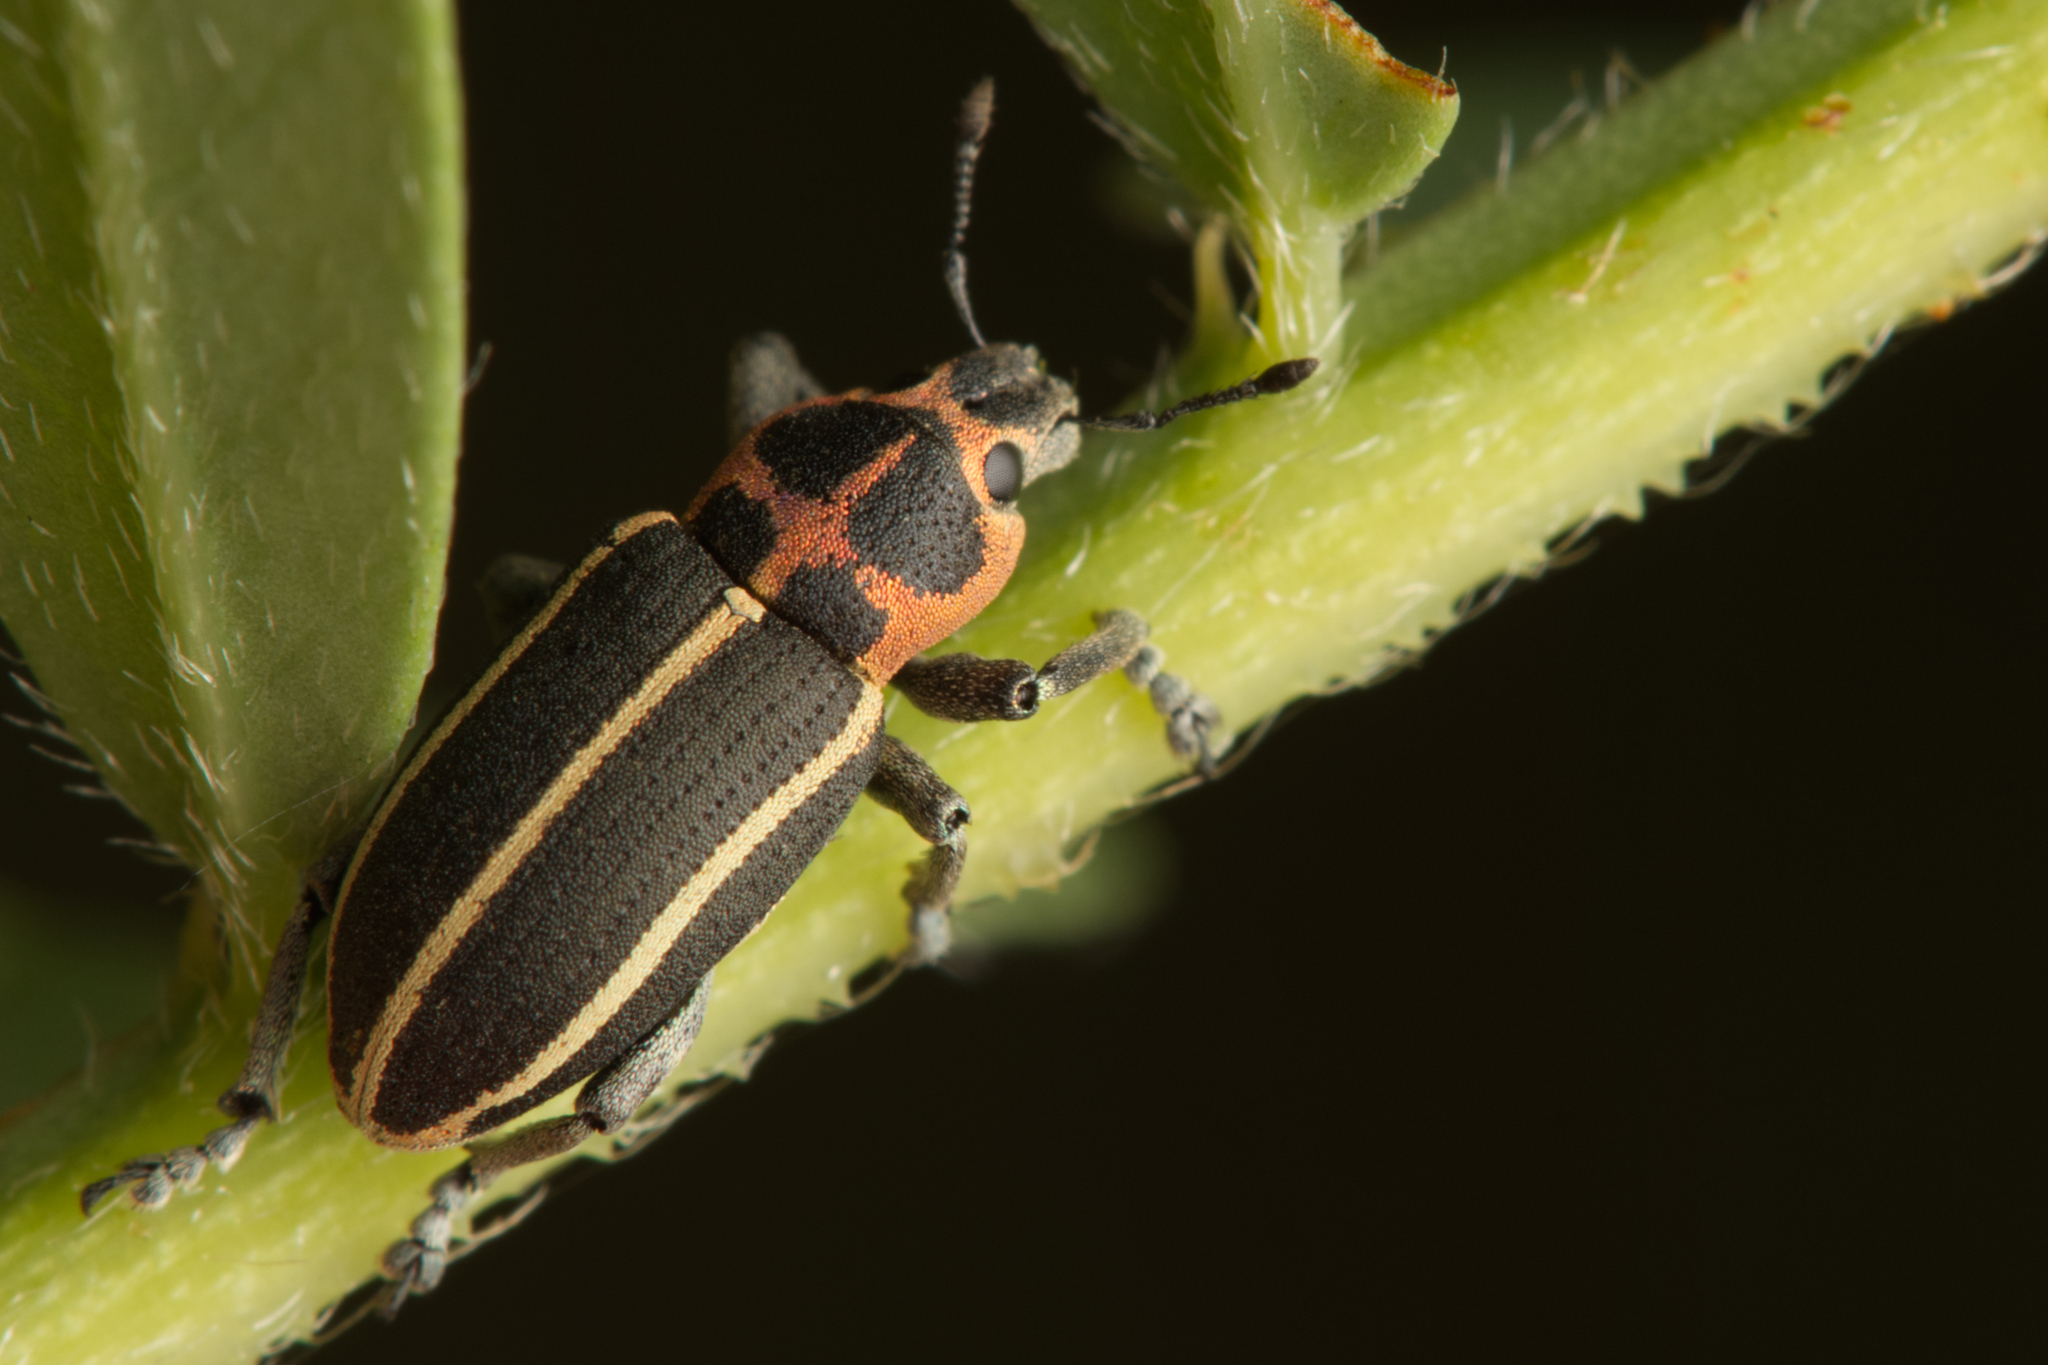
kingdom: Animalia
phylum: Arthropoda
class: Insecta
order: Coleoptera
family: Curculionidae
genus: Eudiagogus
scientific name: Eudiagogus maryae
